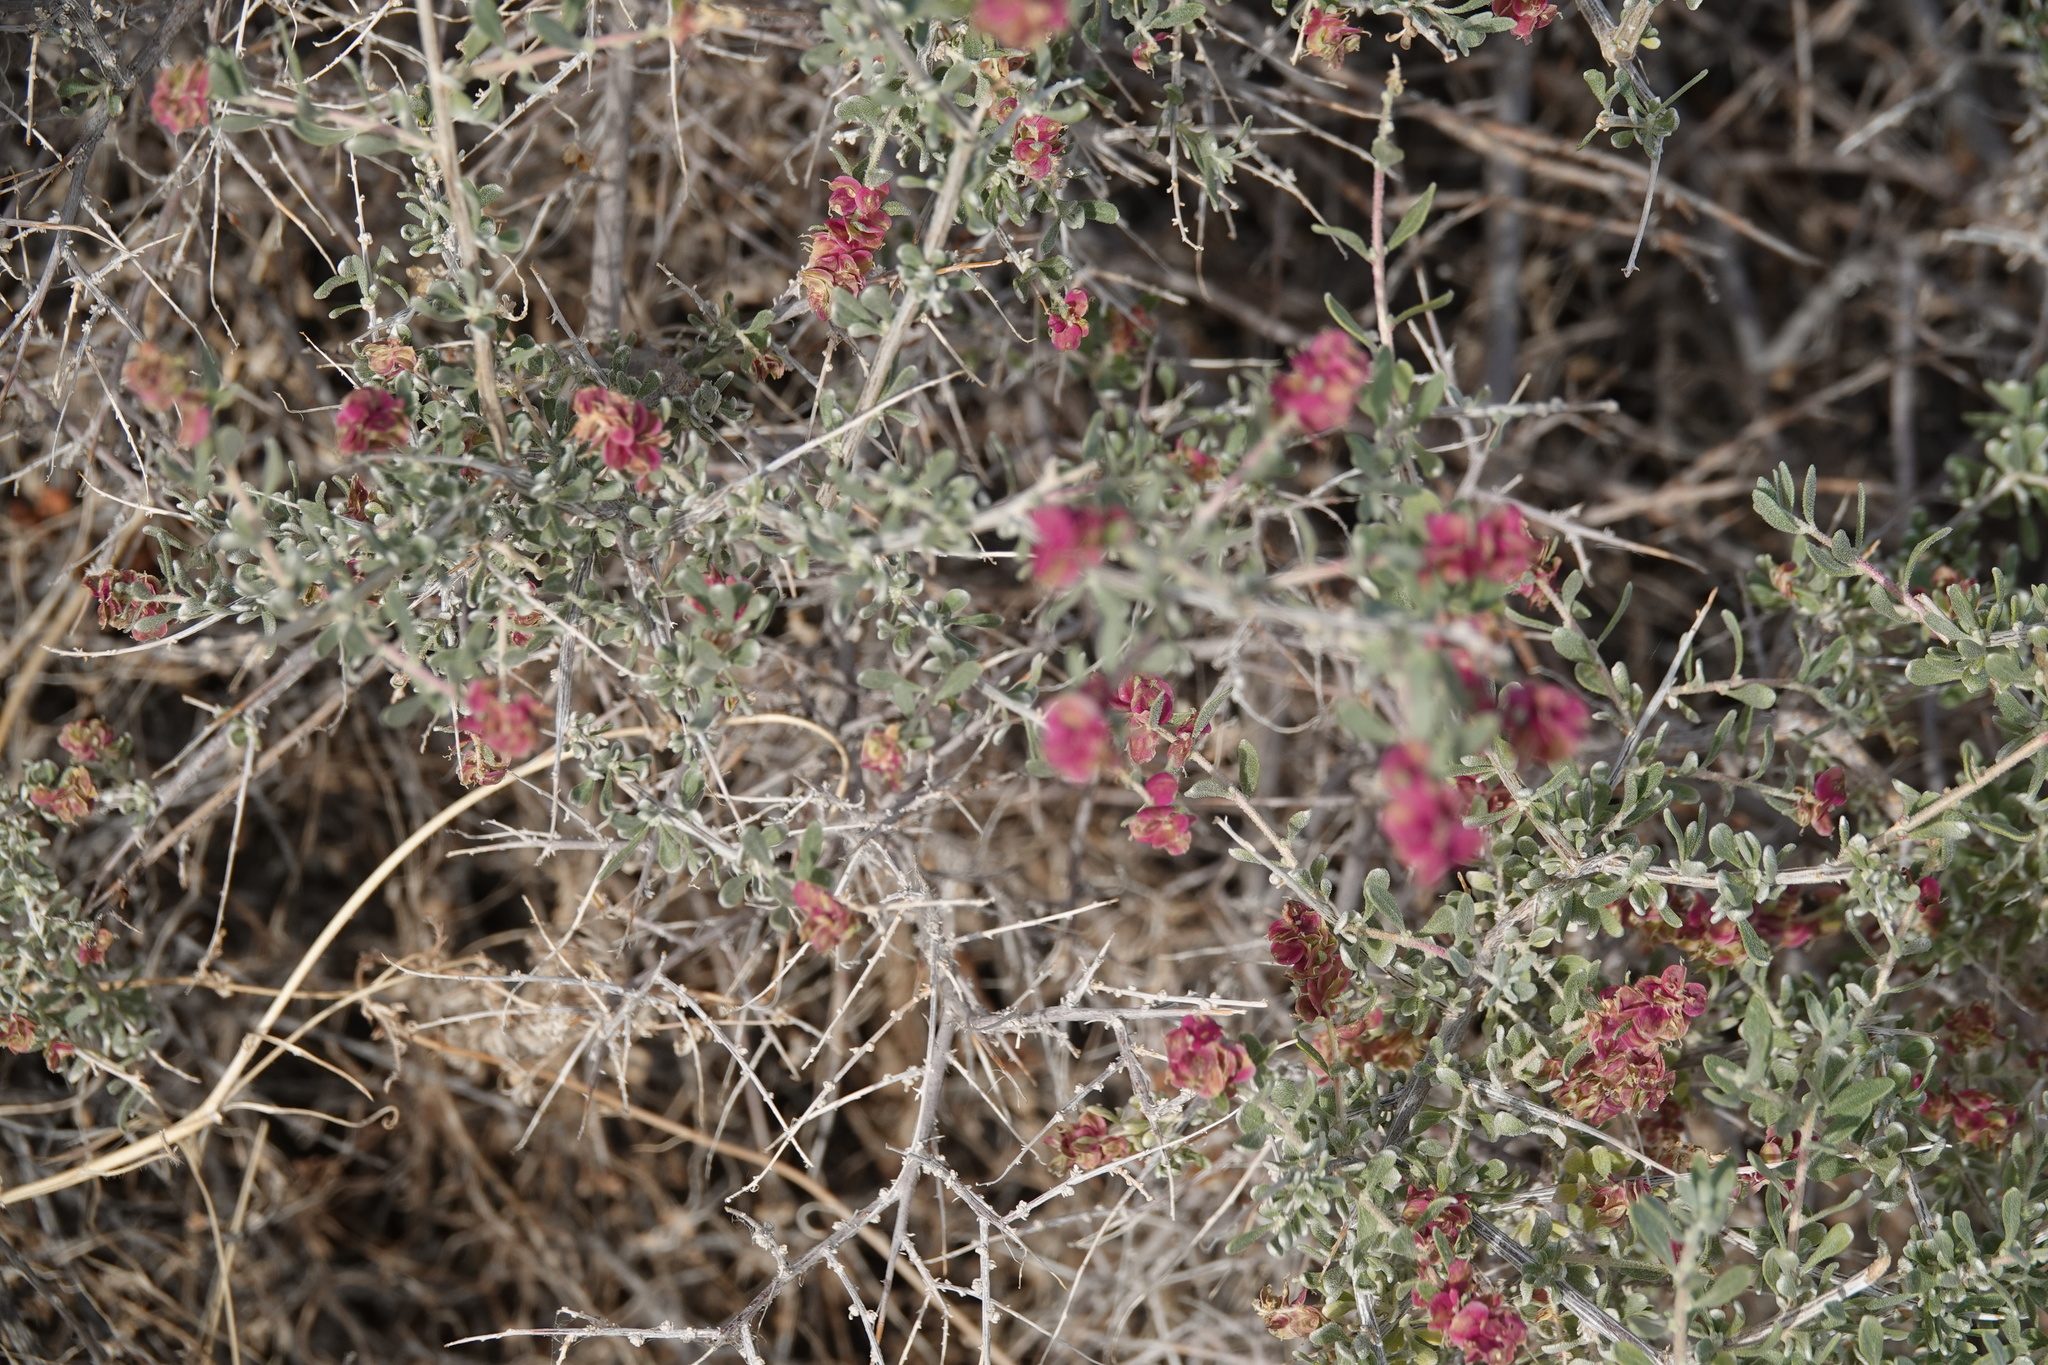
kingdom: Plantae
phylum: Tracheophyta
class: Magnoliopsida
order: Caryophyllales
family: Amaranthaceae
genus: Grayia
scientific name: Grayia spinosa
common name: Spiny hopsage
